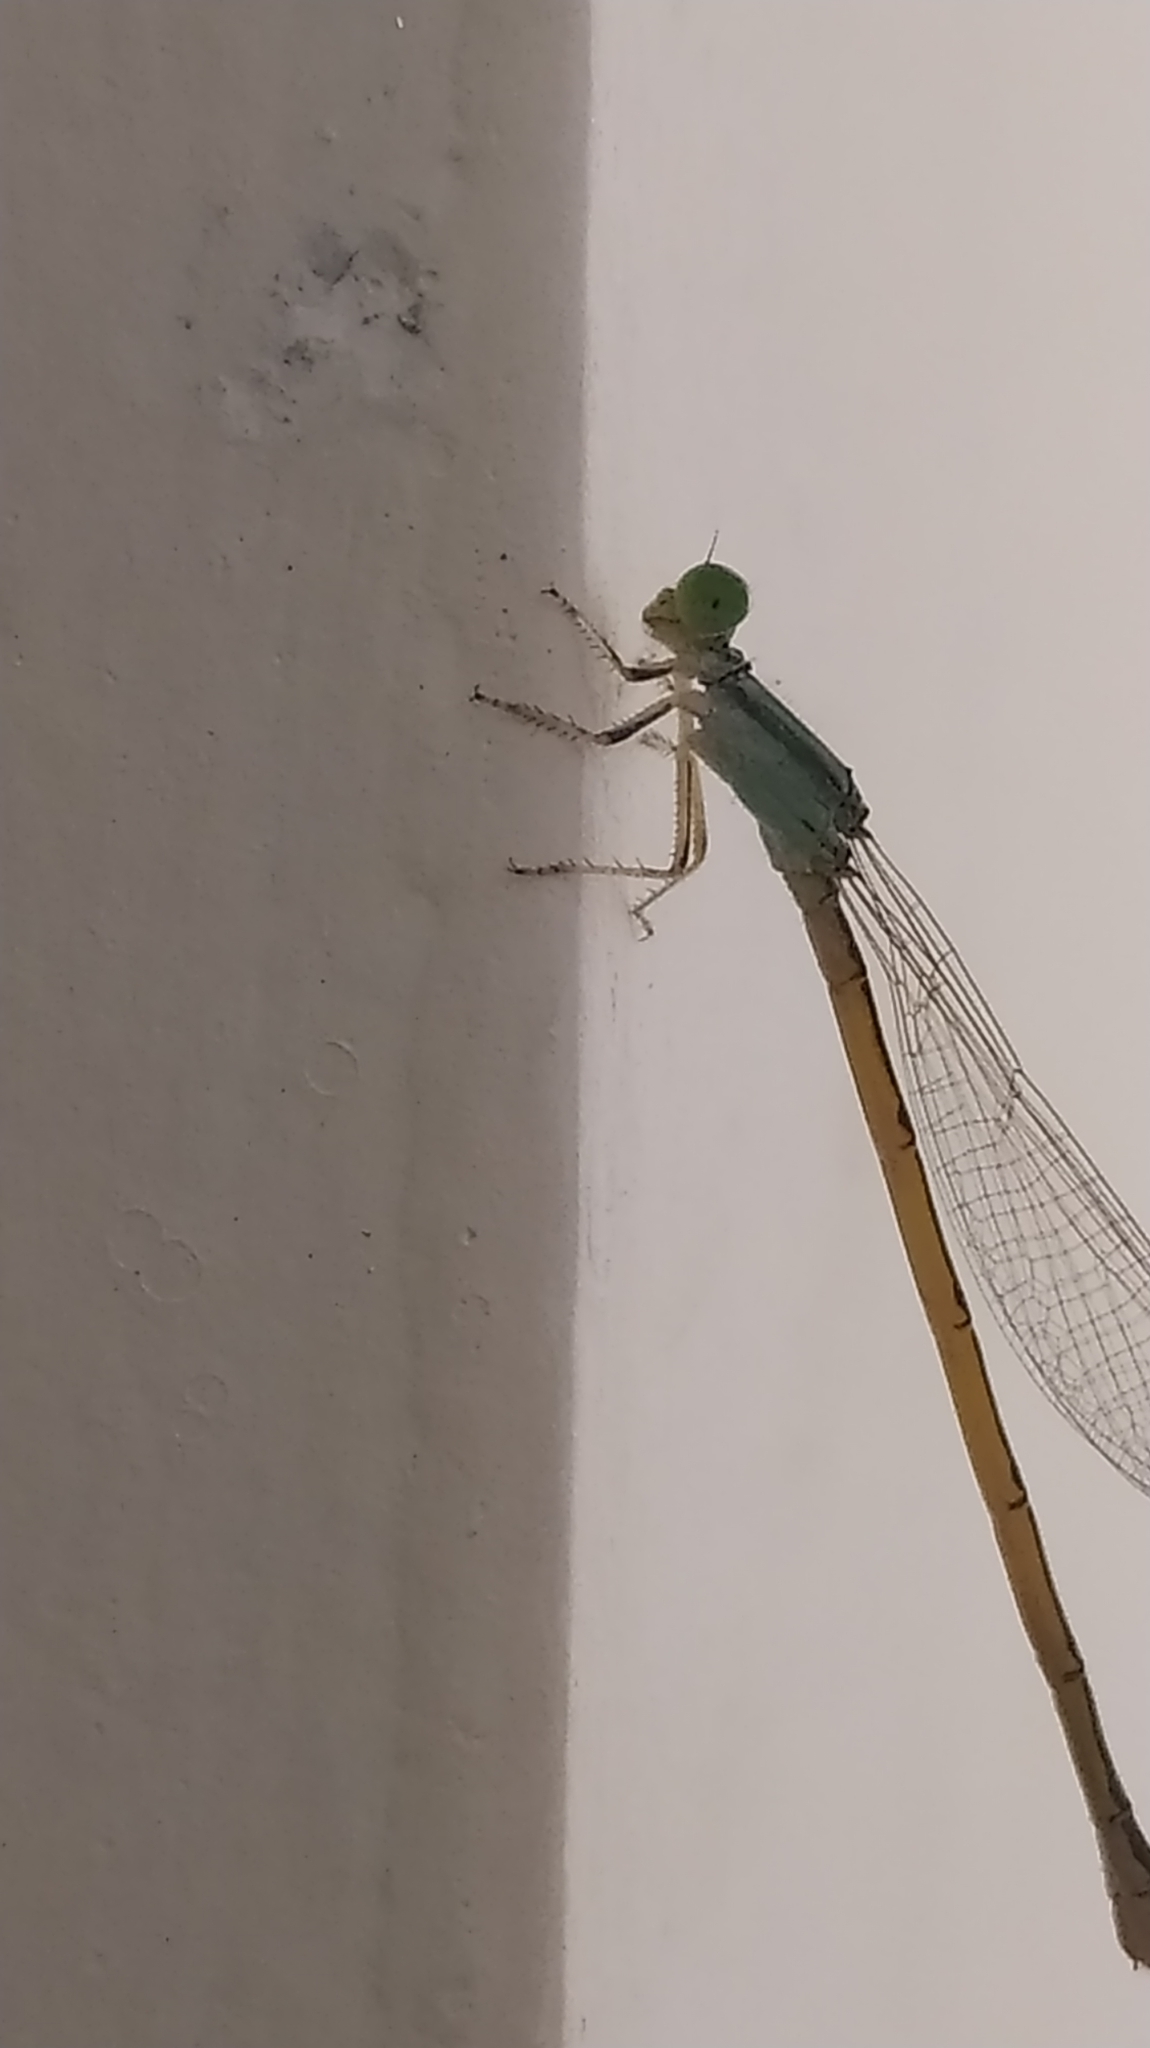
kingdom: Animalia
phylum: Arthropoda
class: Insecta
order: Odonata
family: Coenagrionidae
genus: Ischnura
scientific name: Ischnura rubilio
